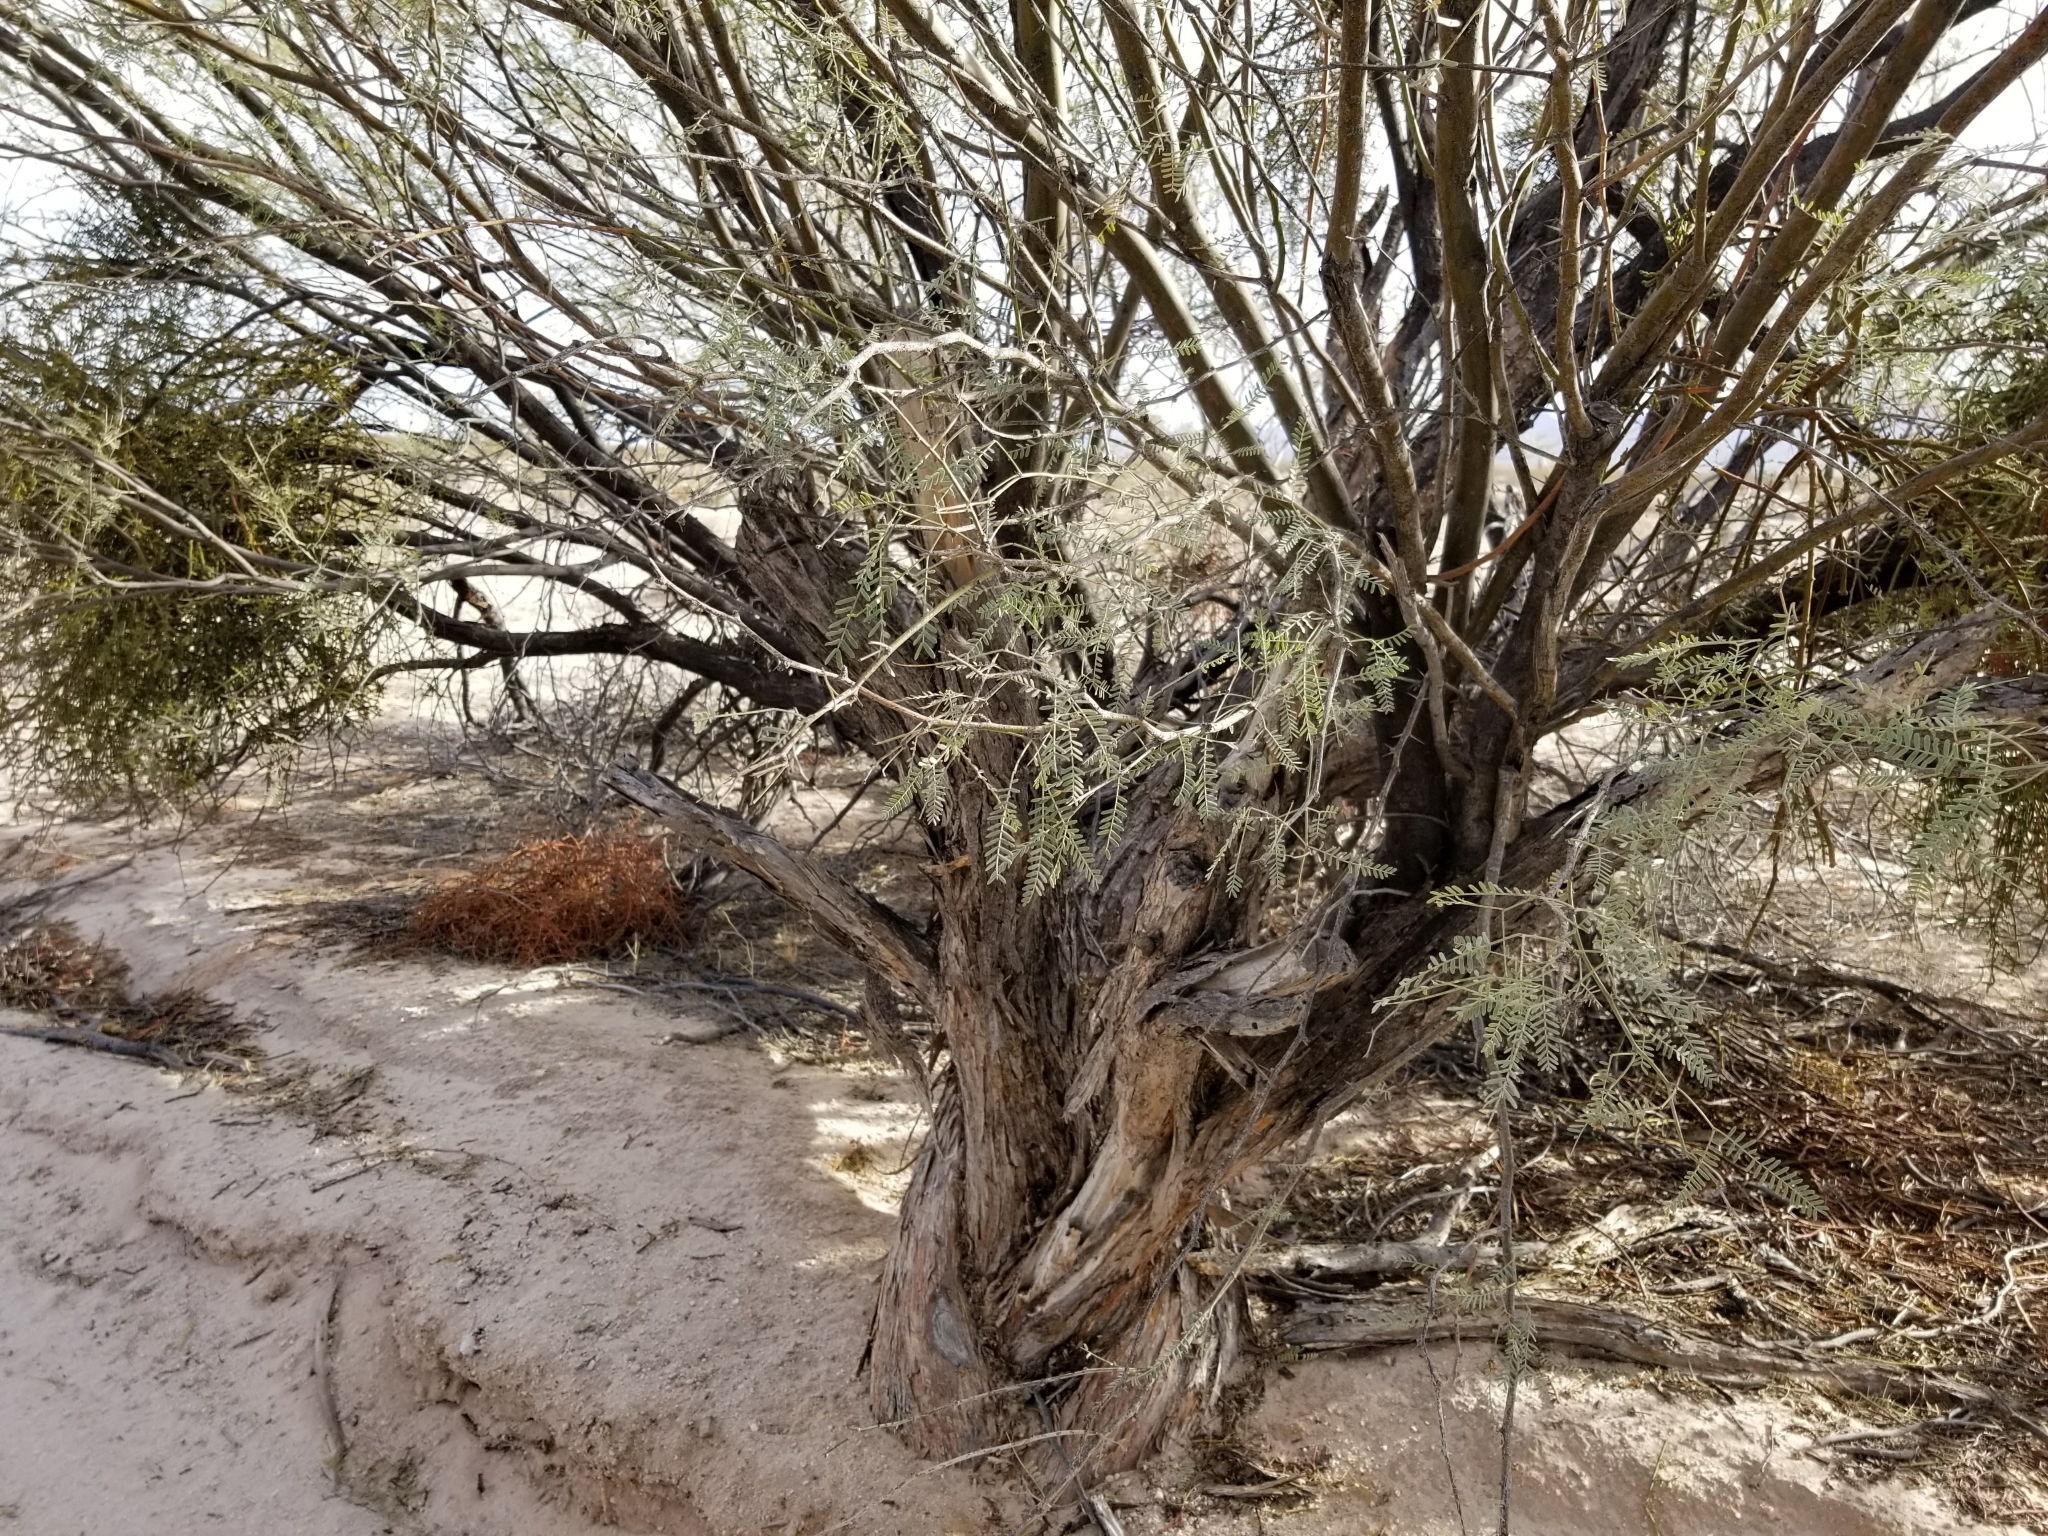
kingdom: Plantae
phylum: Tracheophyta
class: Magnoliopsida
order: Fabales
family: Fabaceae
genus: Prosopis
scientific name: Prosopis glandulosa
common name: Honey mesquite
